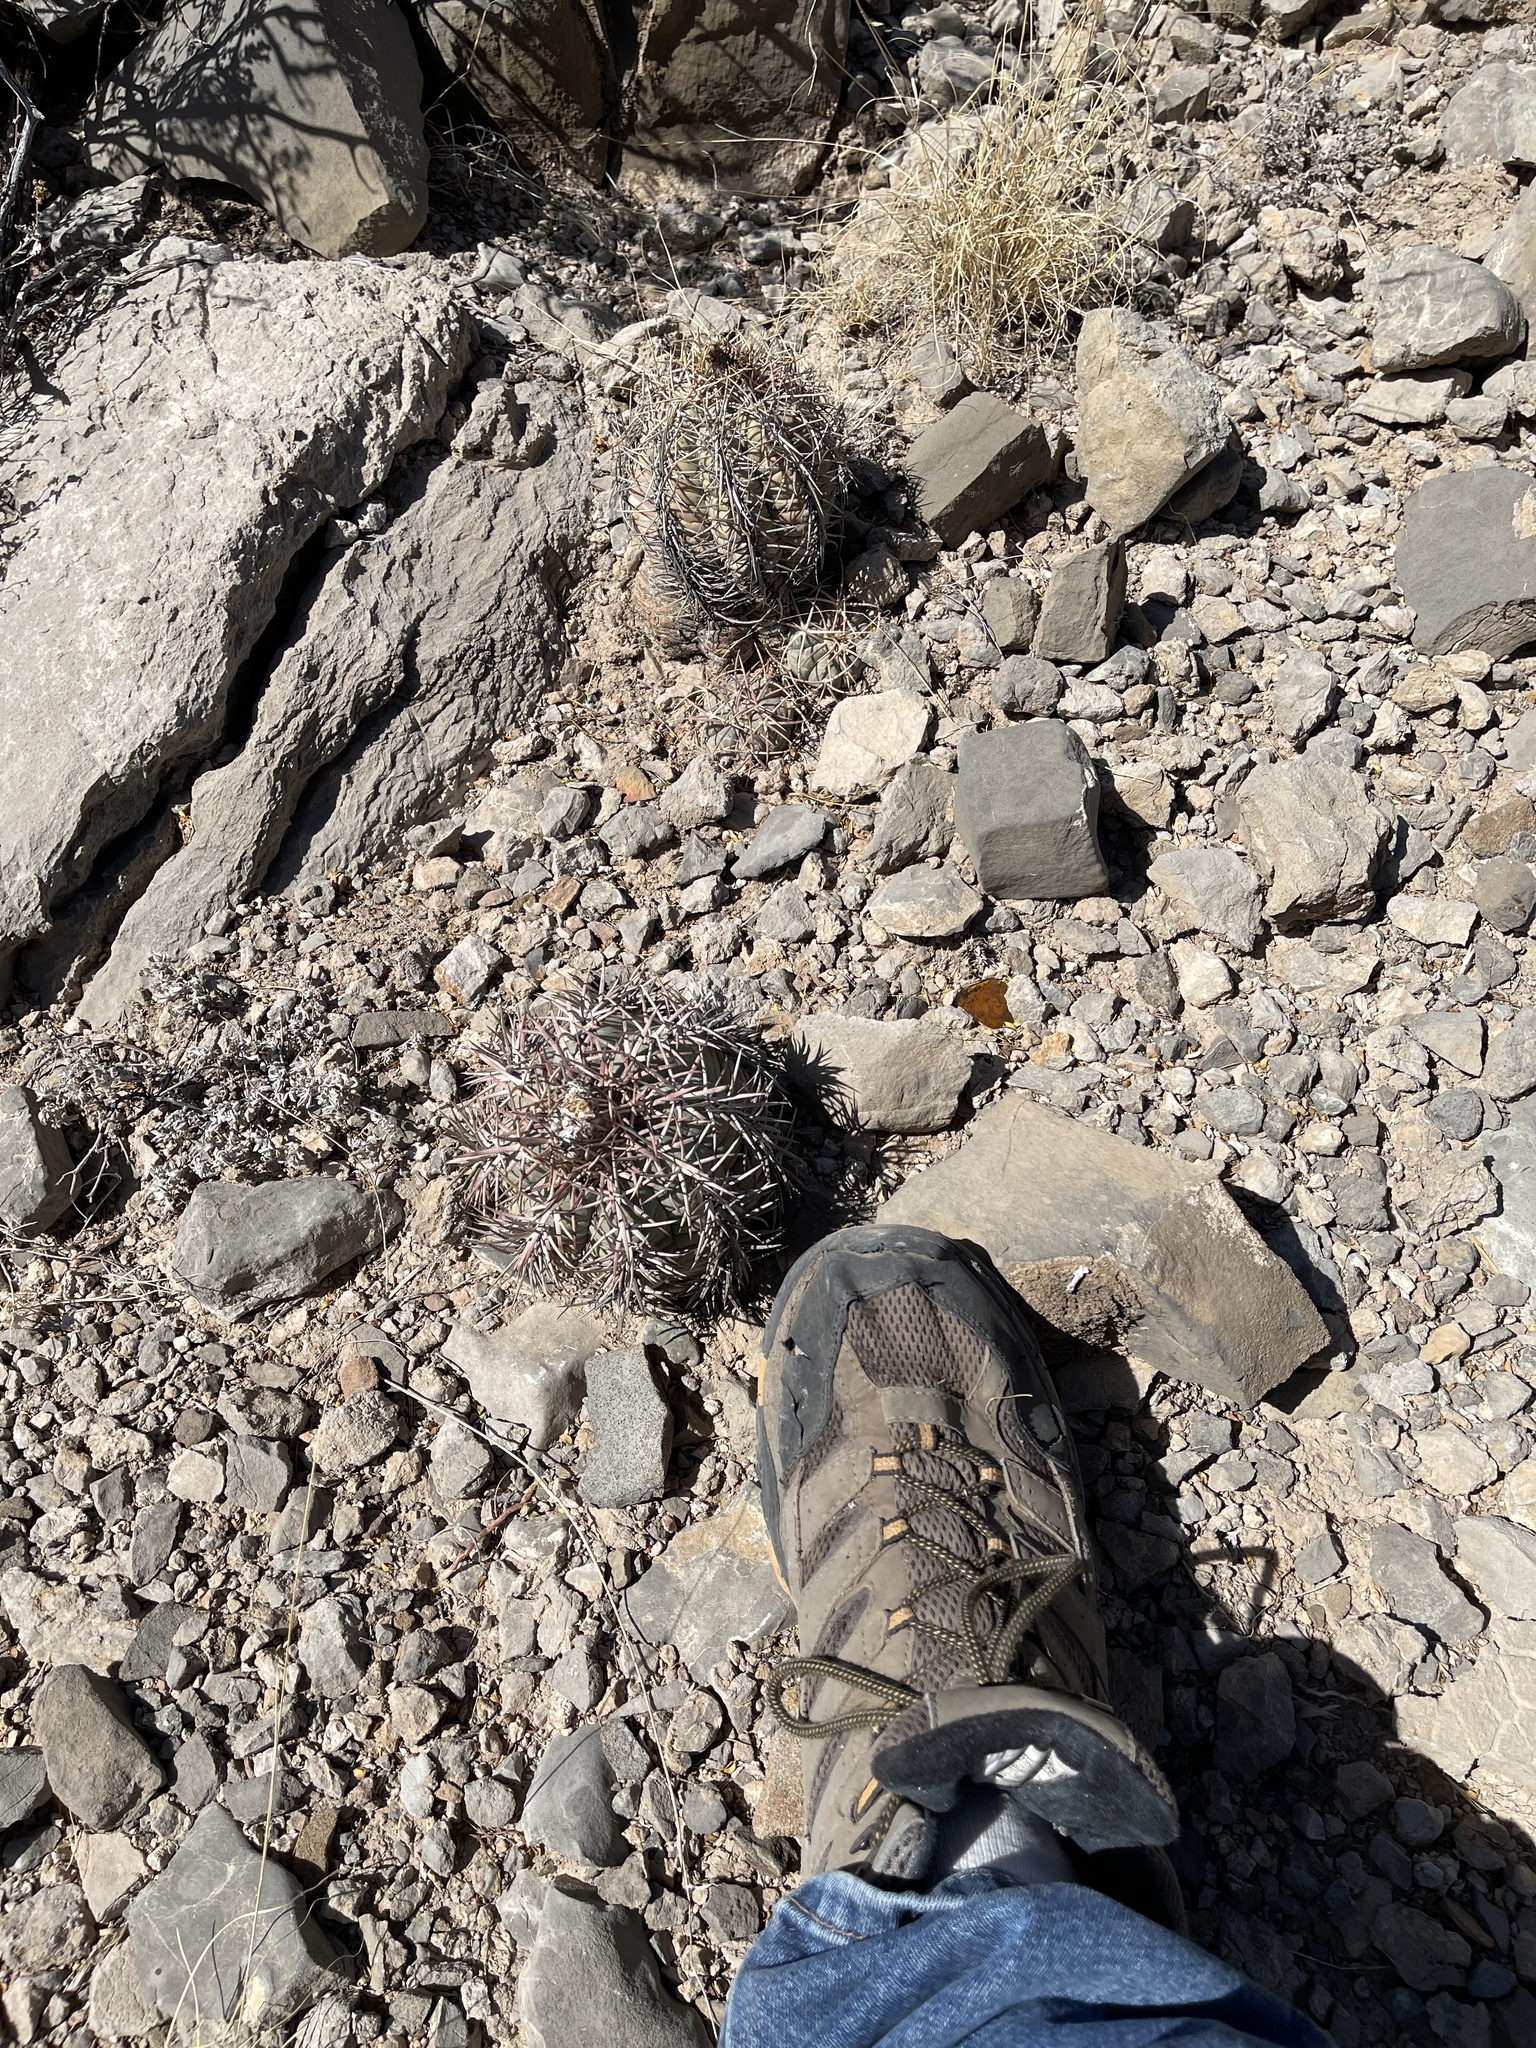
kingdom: Plantae
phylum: Tracheophyta
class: Magnoliopsida
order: Caryophyllales
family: Cactaceae
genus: Echinocactus
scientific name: Echinocactus horizonthalonius
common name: Devilshead
